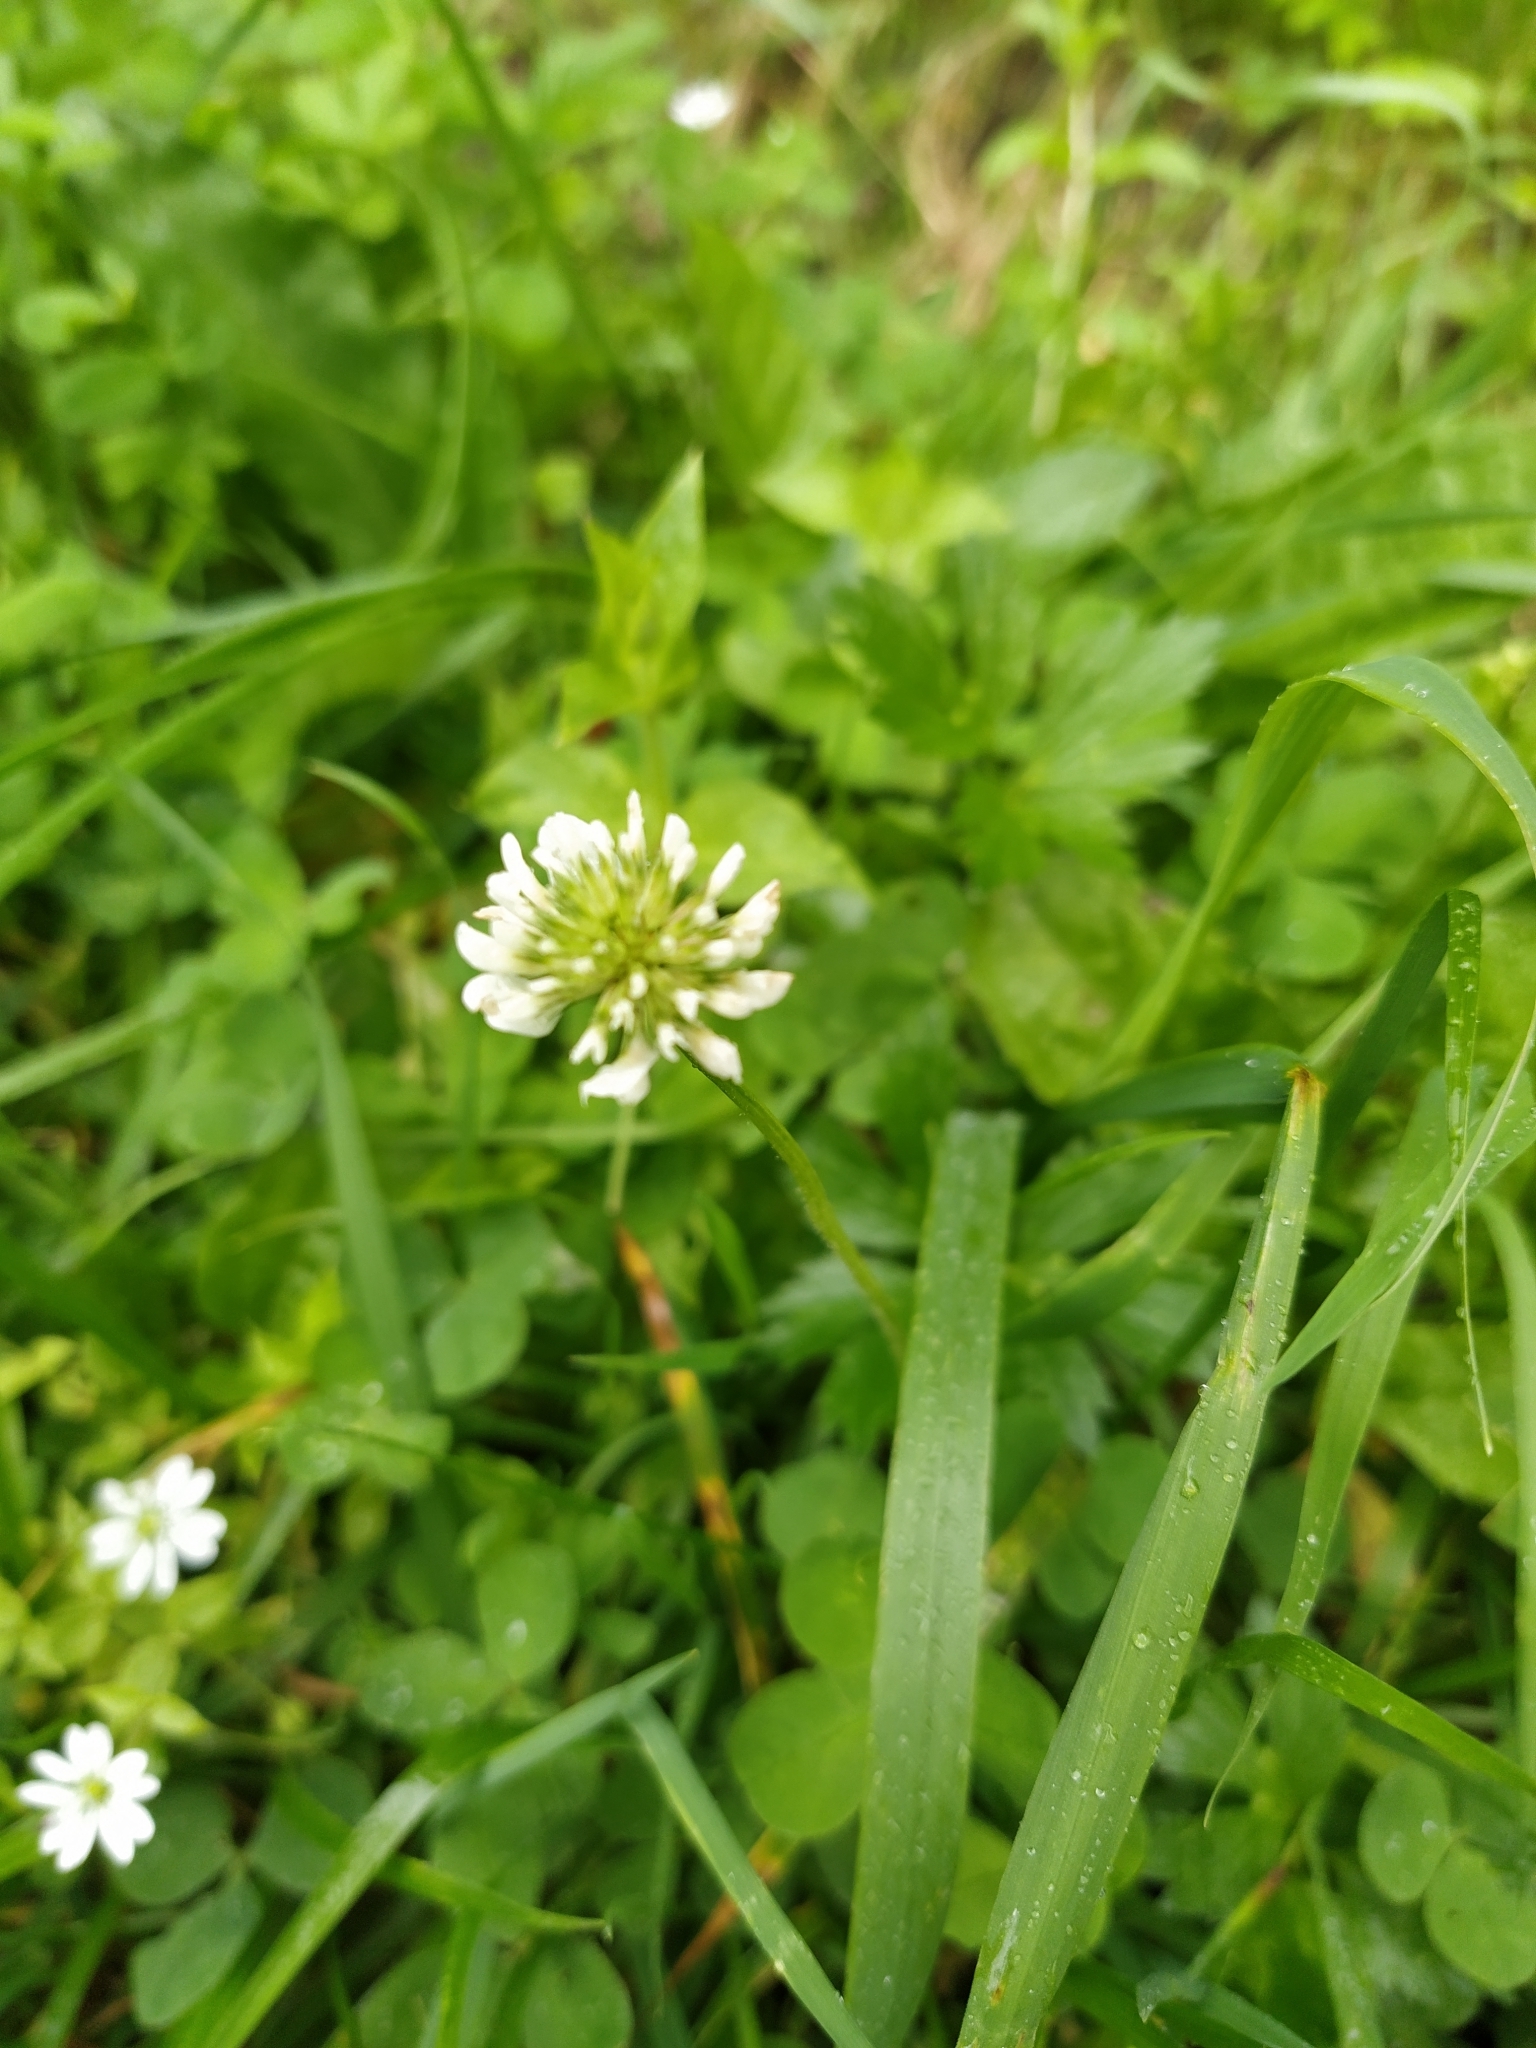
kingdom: Plantae
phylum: Tracheophyta
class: Magnoliopsida
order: Fabales
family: Fabaceae
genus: Trifolium
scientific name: Trifolium repens
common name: White clover
